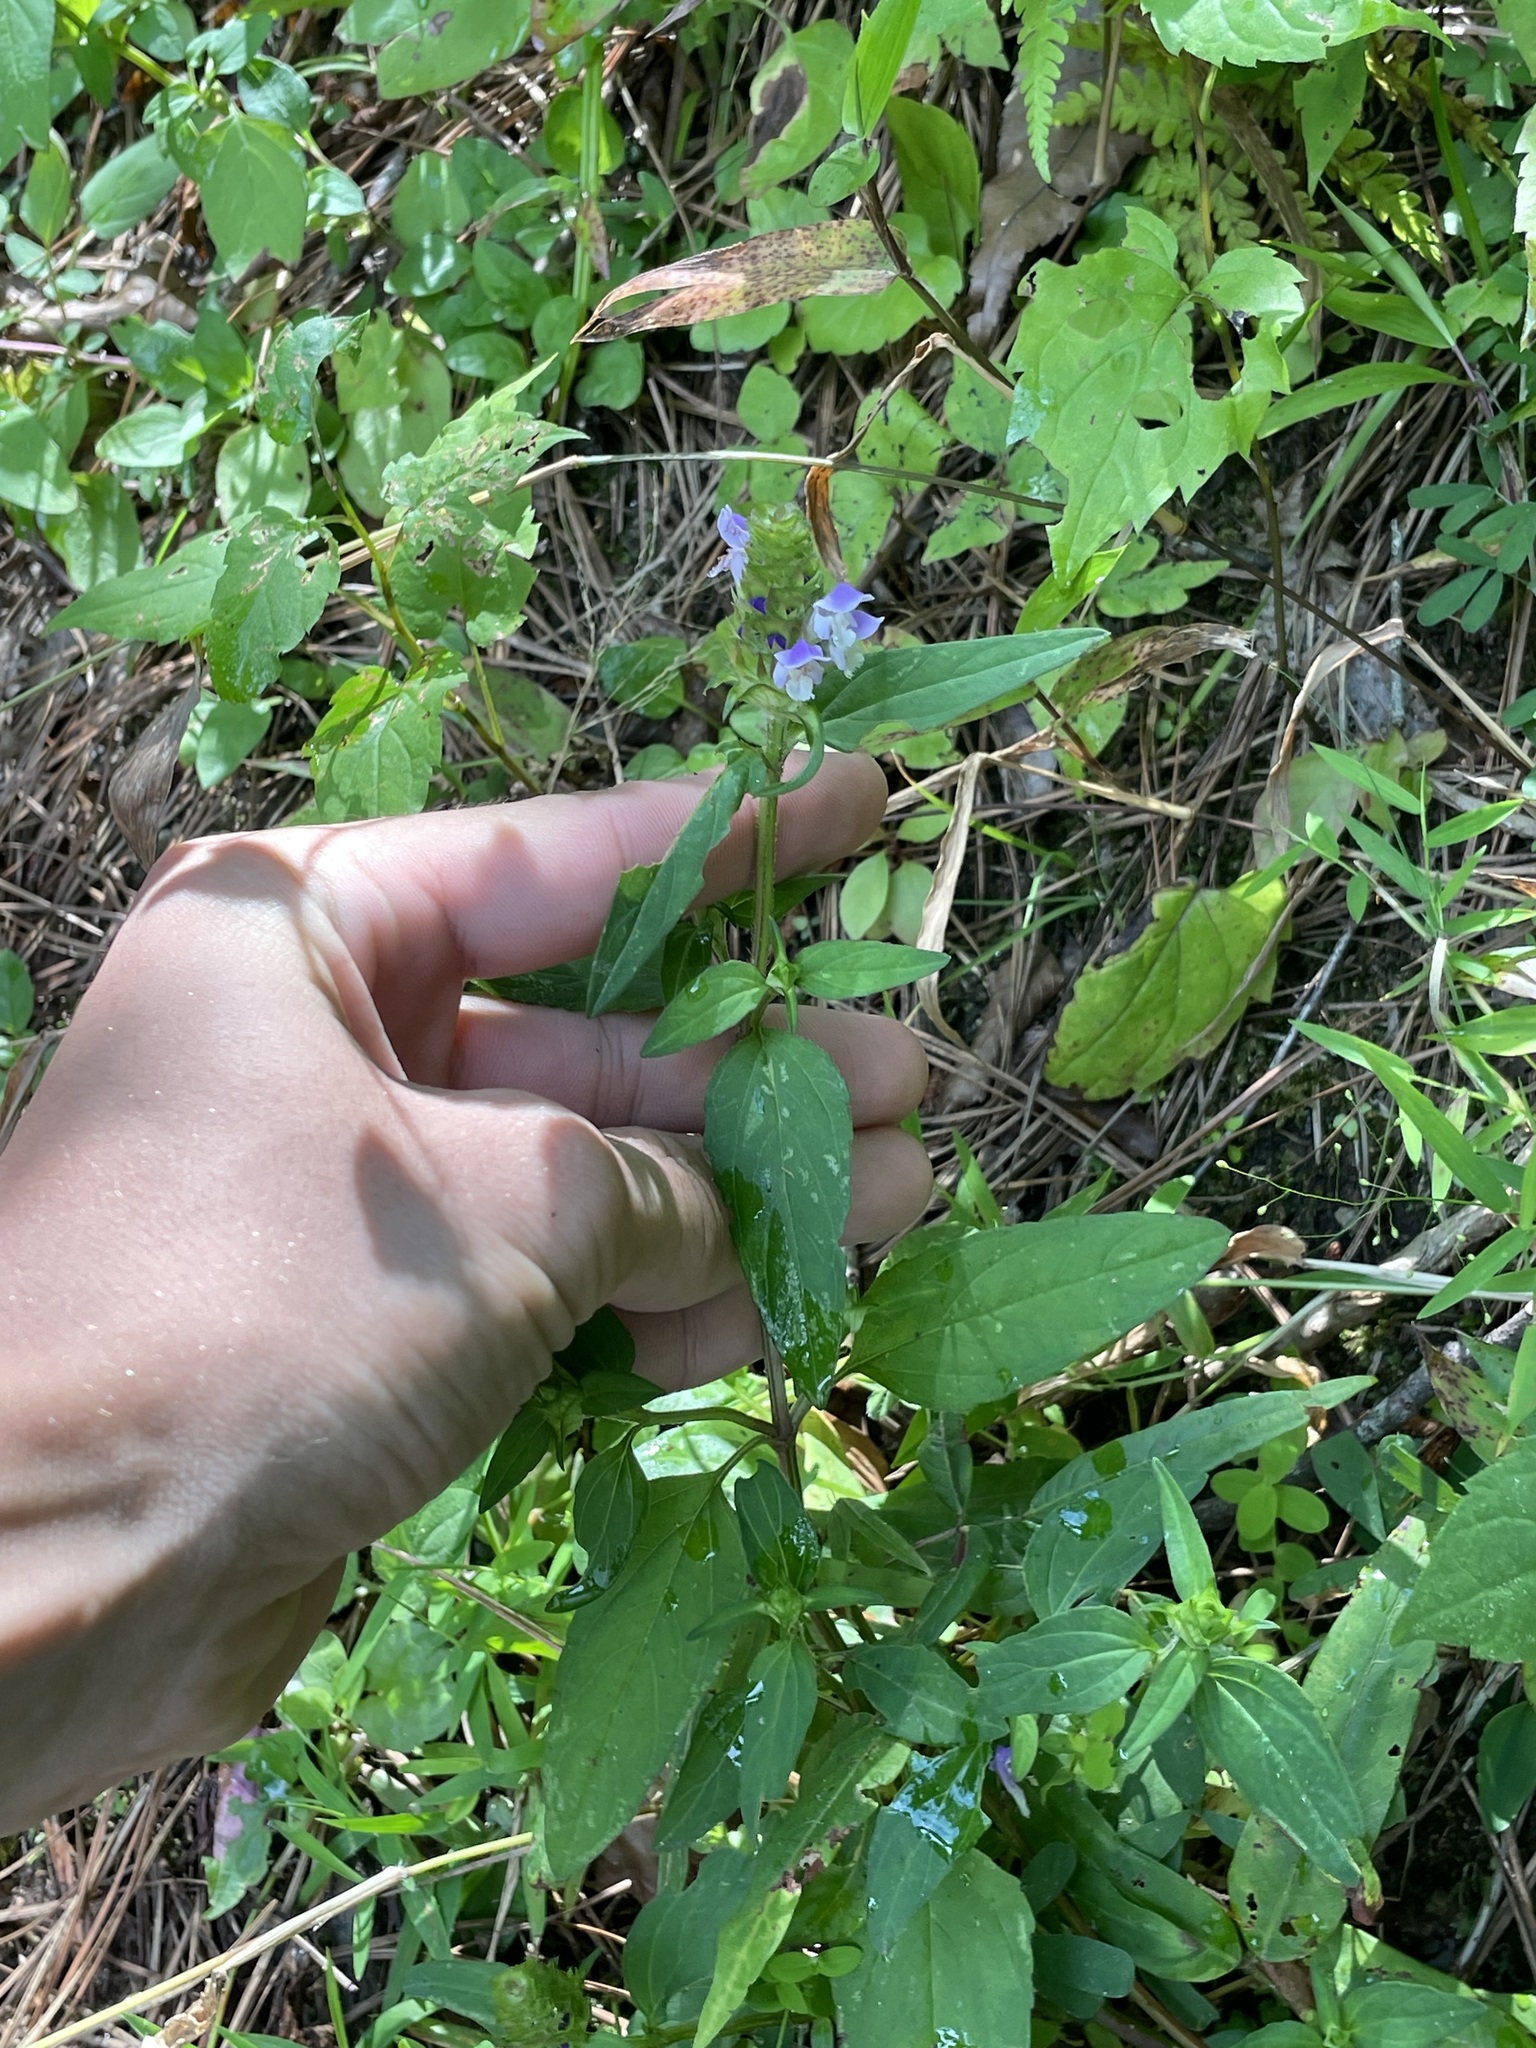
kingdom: Plantae
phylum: Tracheophyta
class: Magnoliopsida
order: Lamiales
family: Lamiaceae
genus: Prunella
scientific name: Prunella vulgaris
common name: Heal-all
